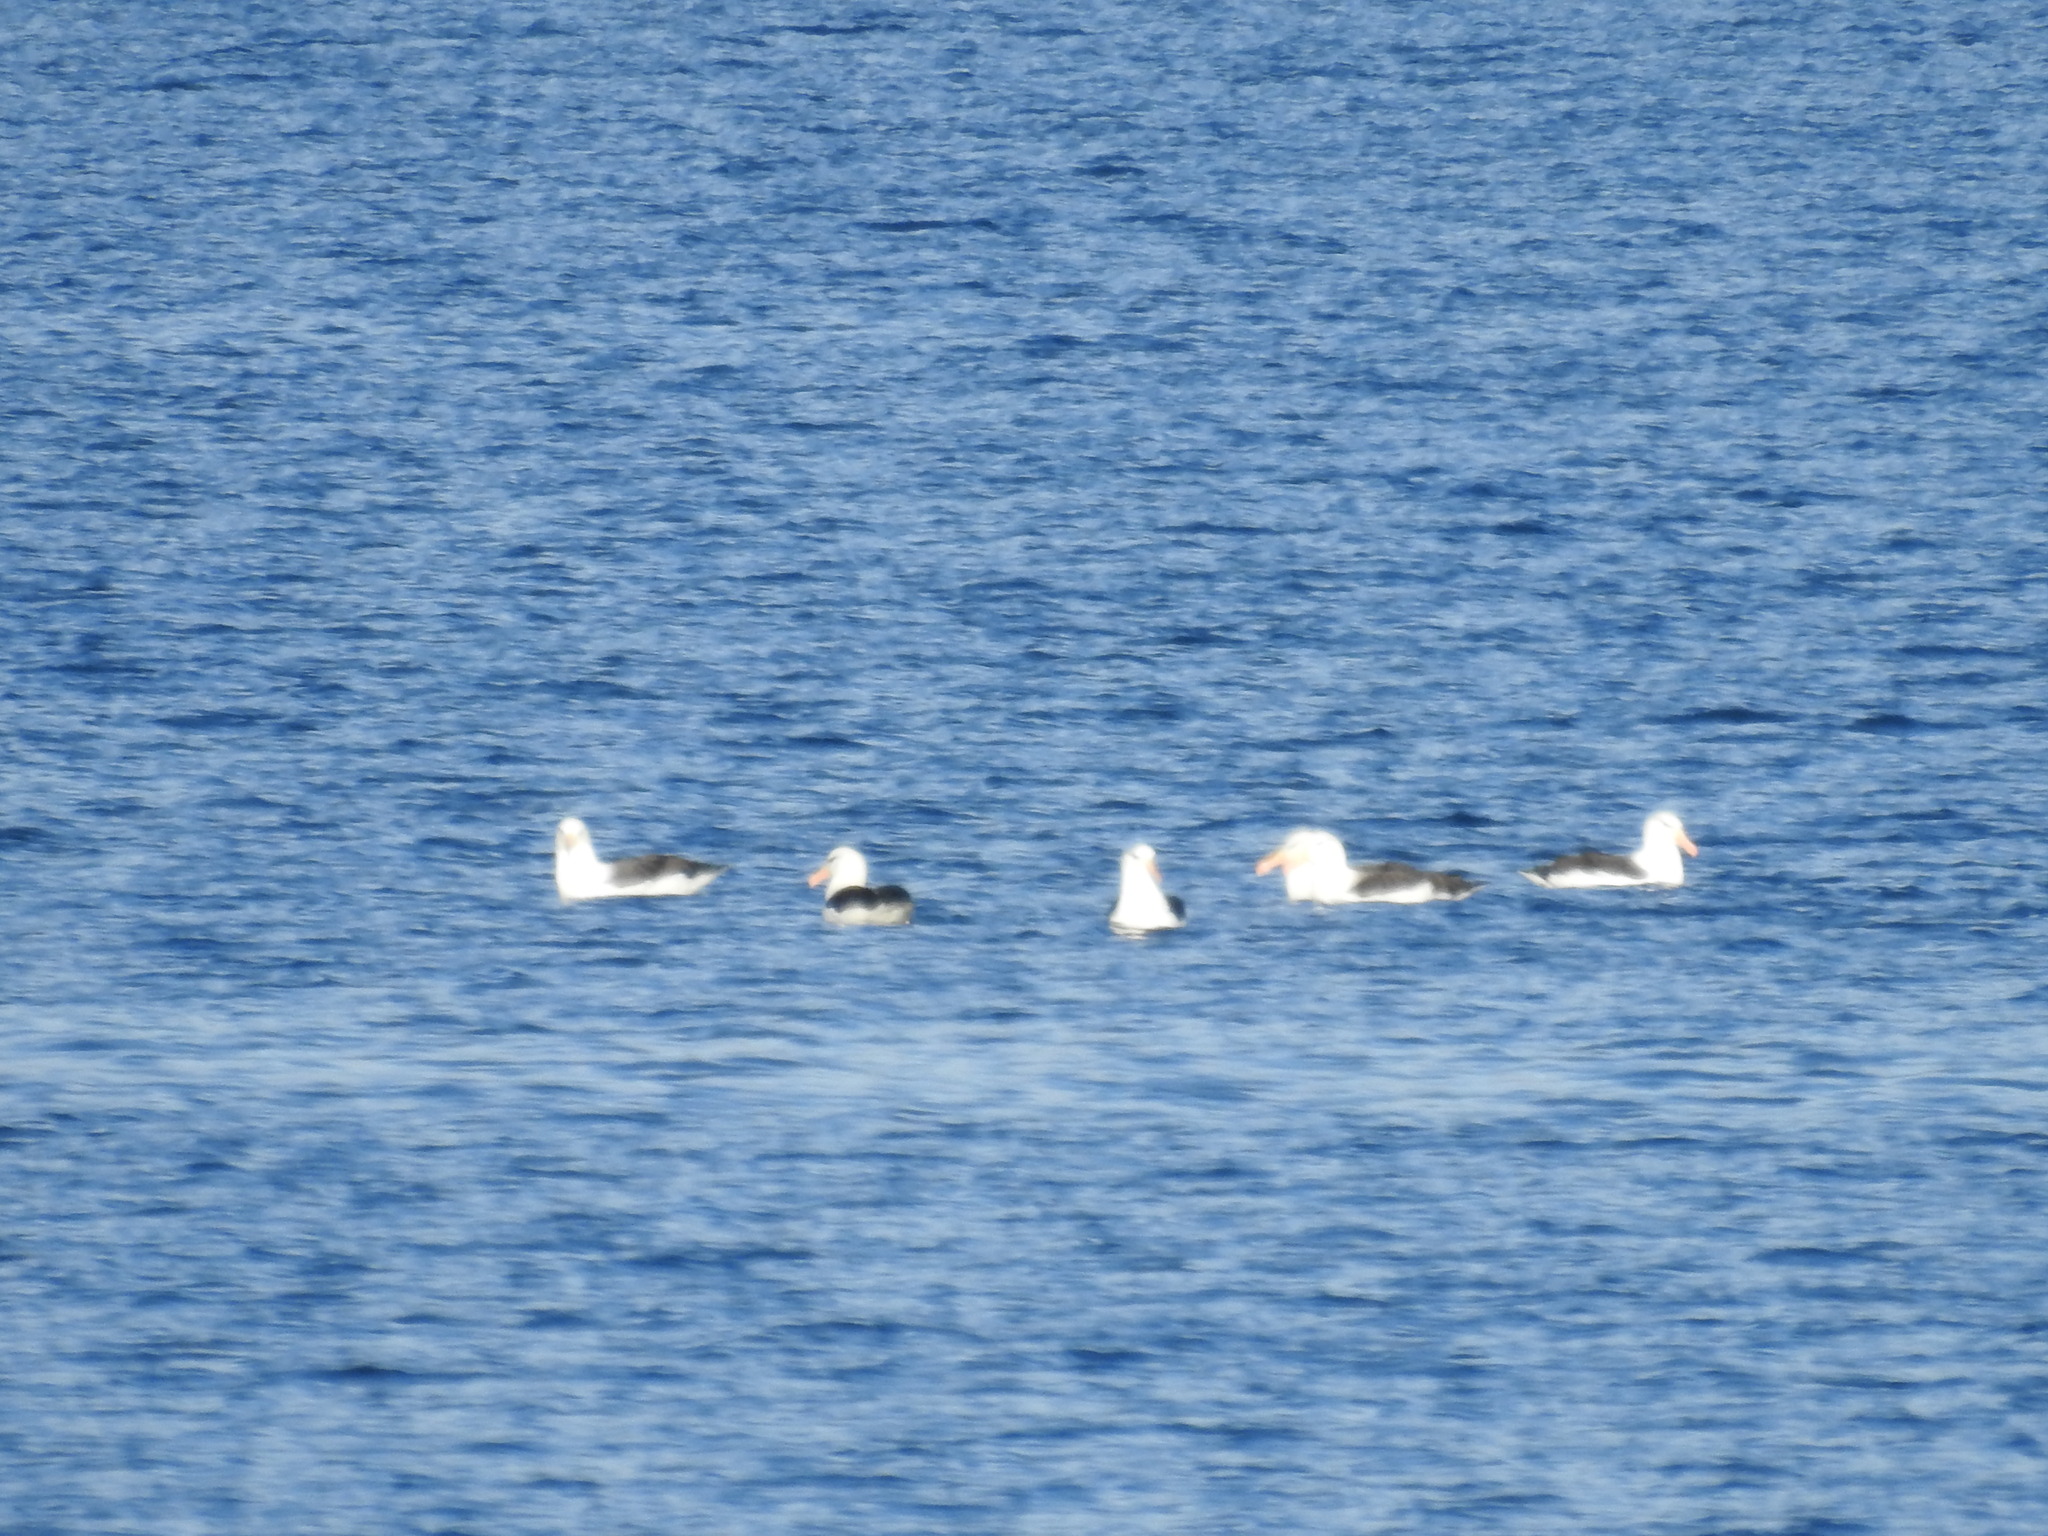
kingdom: Animalia
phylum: Chordata
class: Aves
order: Procellariiformes
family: Diomedeidae
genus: Thalassarche
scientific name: Thalassarche melanophris
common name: Black-browed albatross
